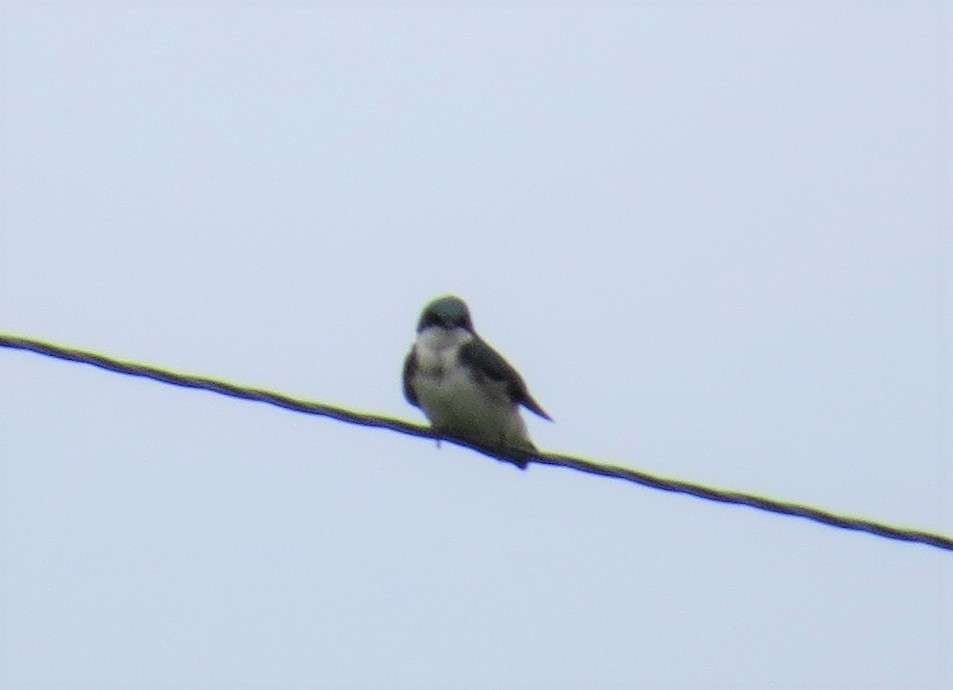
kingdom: Animalia
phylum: Chordata
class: Aves
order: Passeriformes
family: Hirundinidae
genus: Tachycineta
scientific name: Tachycineta bicolor
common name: Tree swallow
